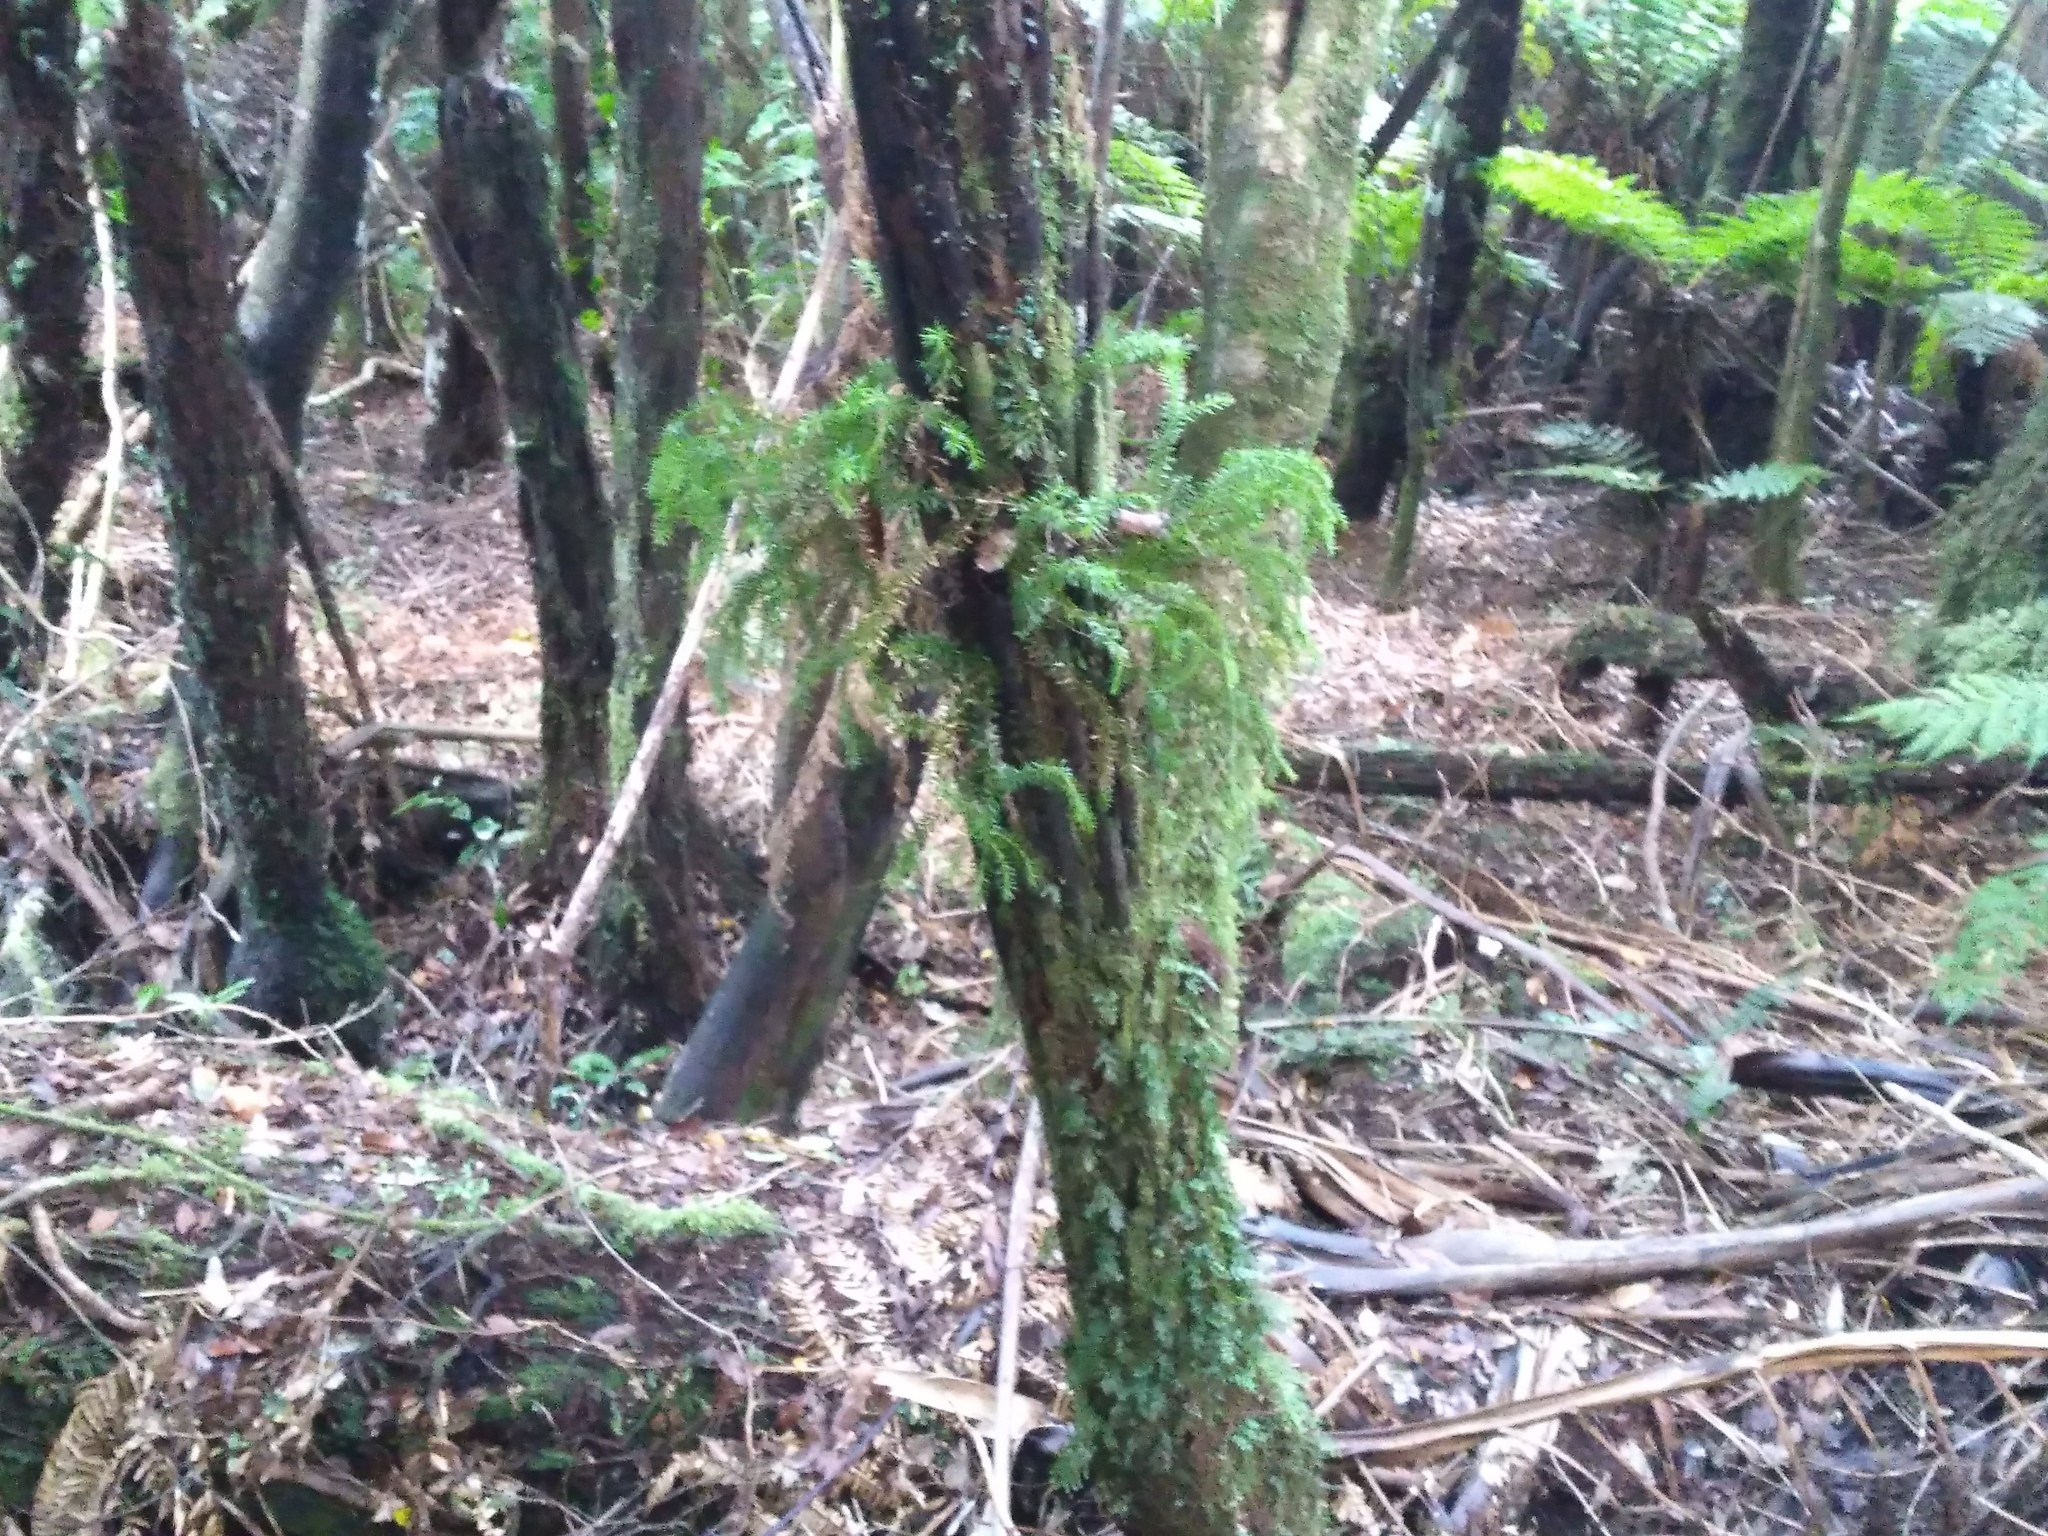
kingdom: Plantae
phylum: Tracheophyta
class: Lycopodiopsida
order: Lycopodiales
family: Lycopodiaceae
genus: Phlegmariurus
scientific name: Phlegmariurus varius
